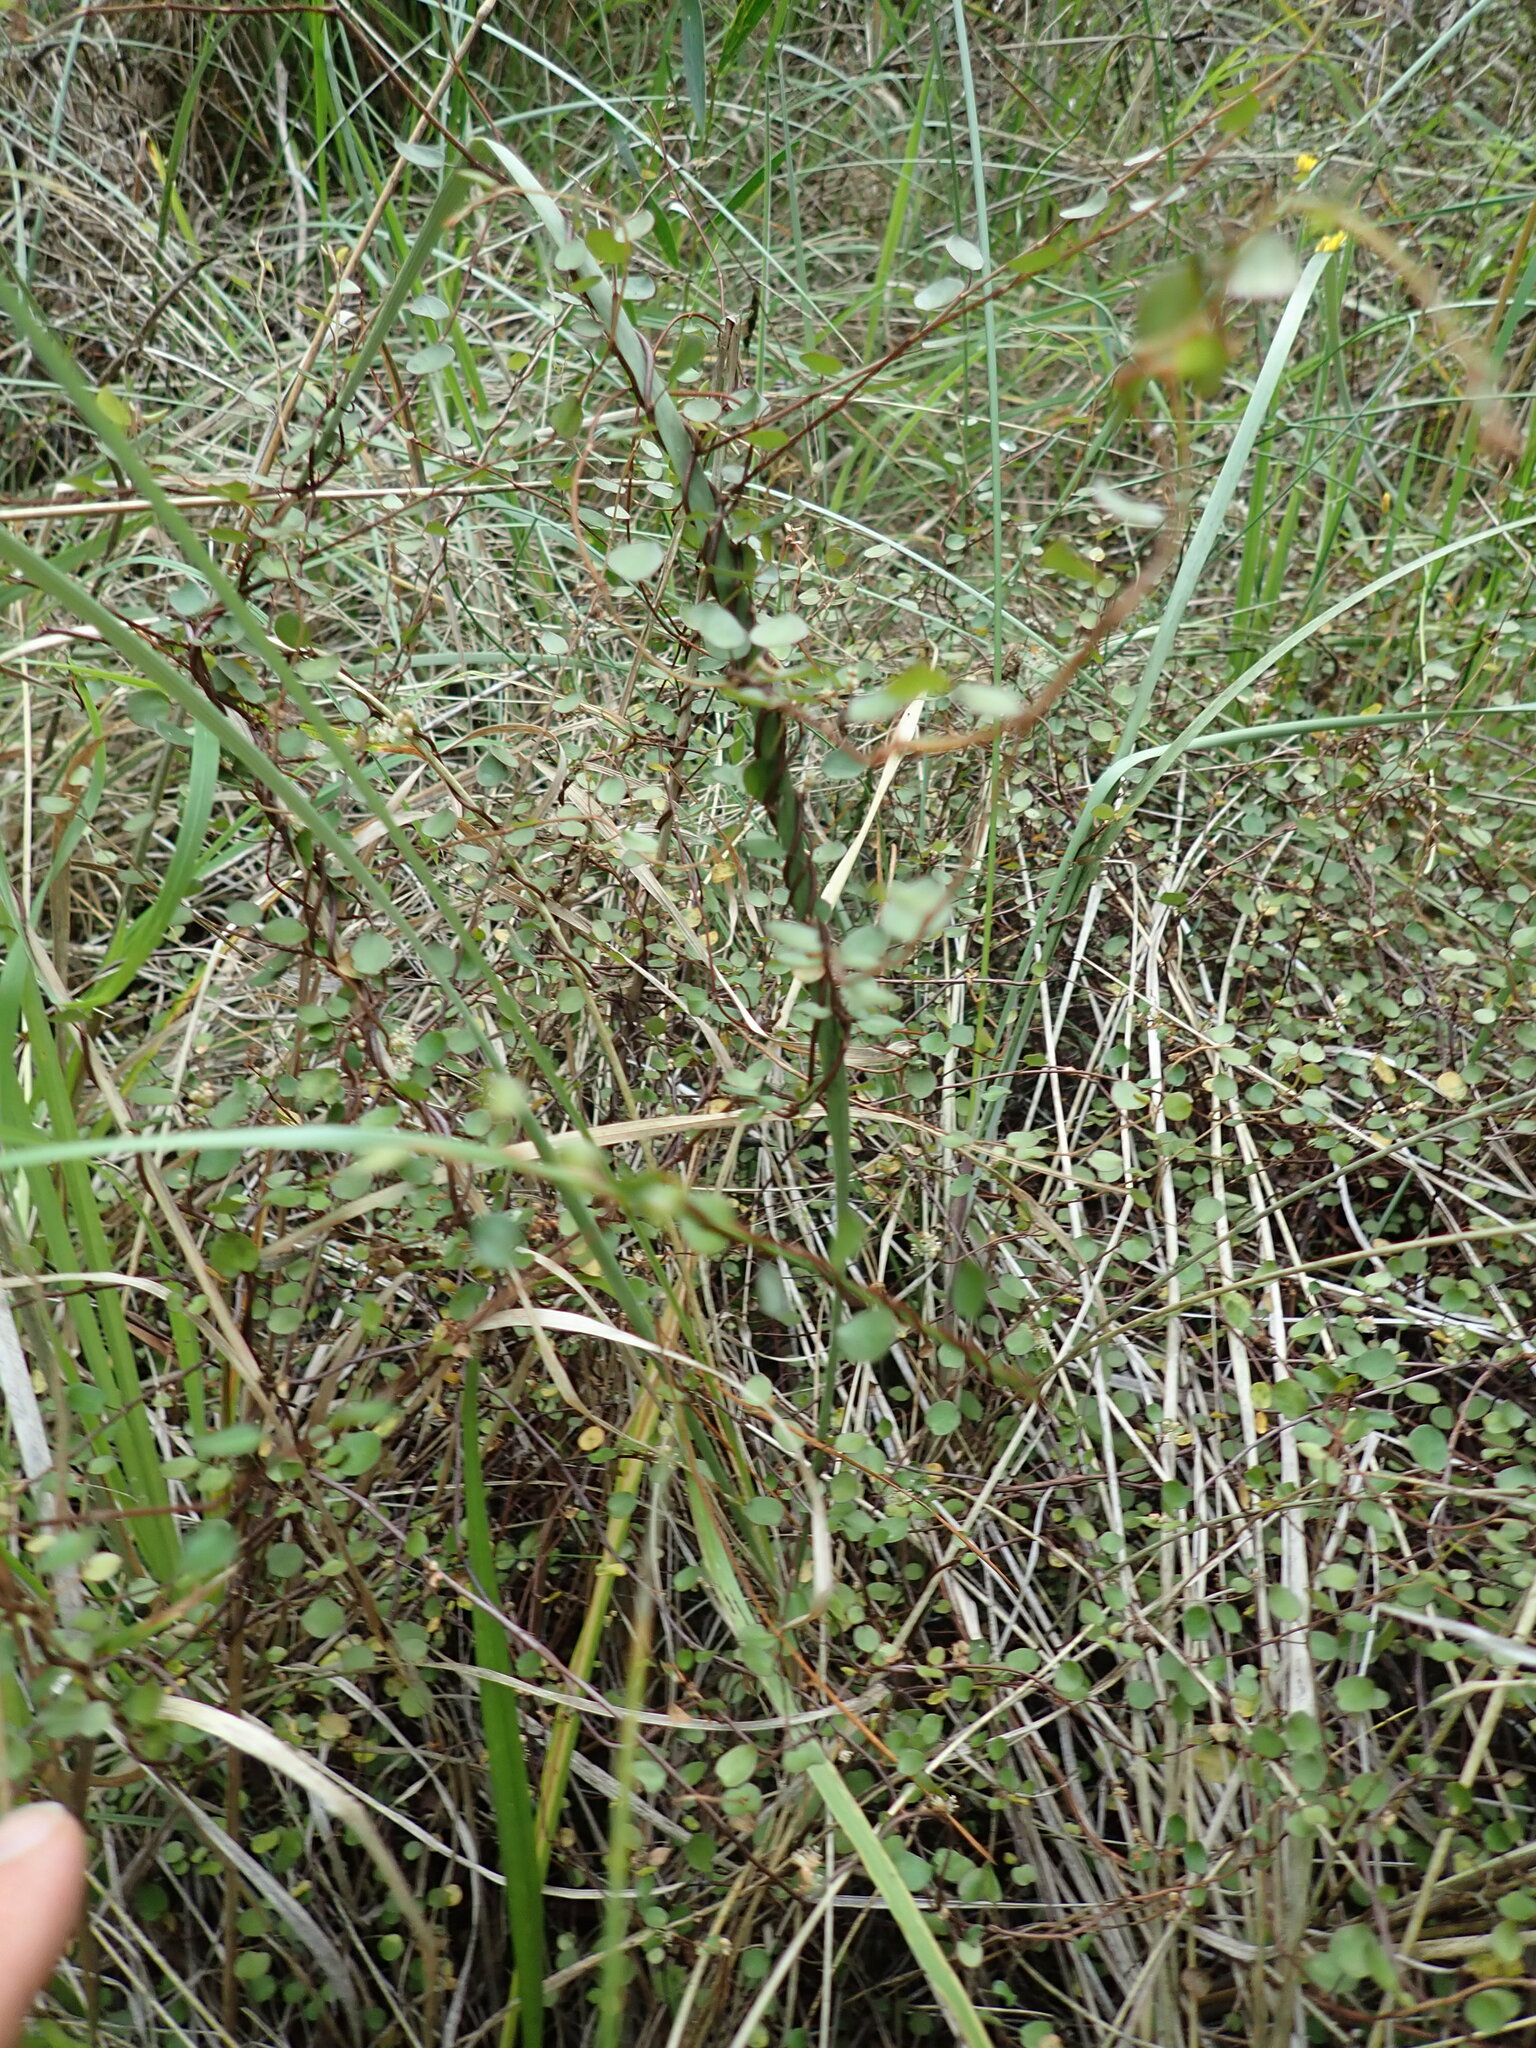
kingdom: Plantae
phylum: Tracheophyta
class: Magnoliopsida
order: Caryophyllales
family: Polygonaceae
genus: Muehlenbeckia
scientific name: Muehlenbeckia complexa
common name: Wireplant
